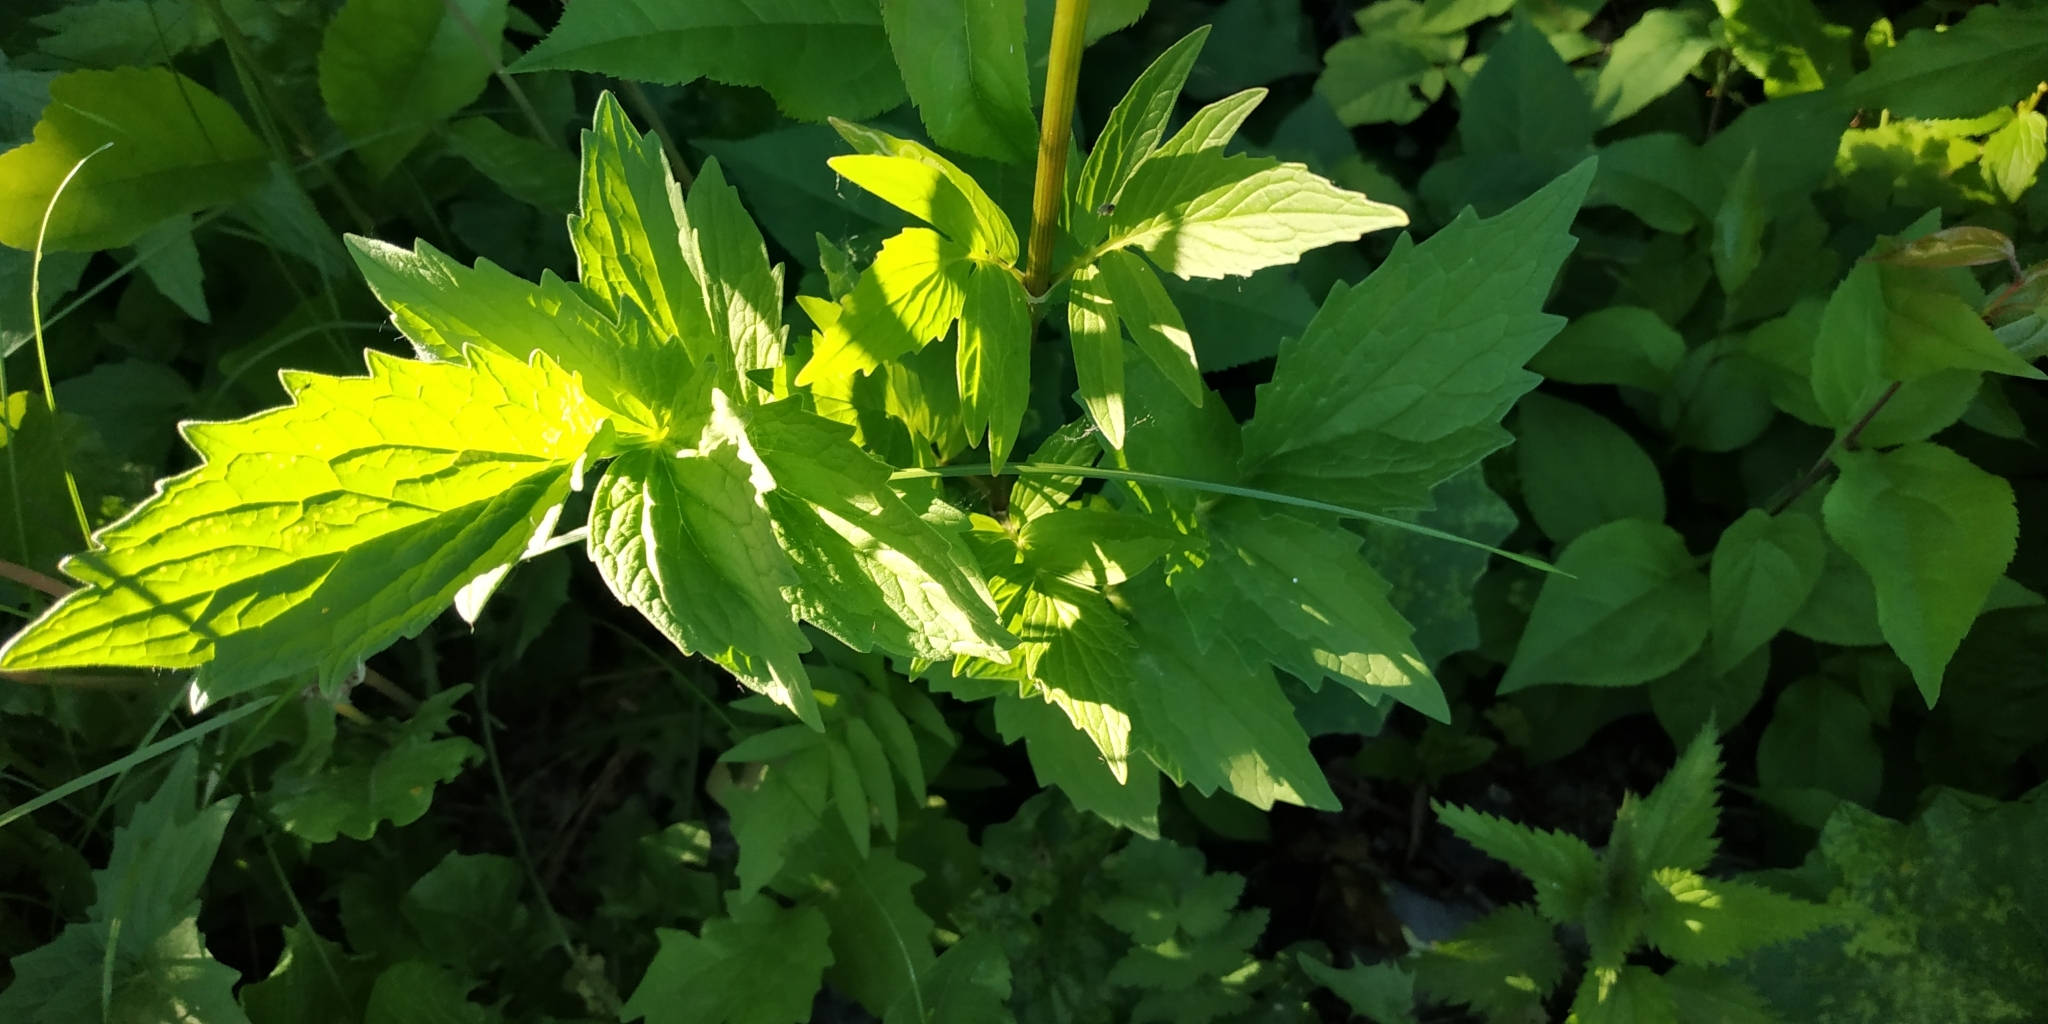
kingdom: Plantae
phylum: Tracheophyta
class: Magnoliopsida
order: Dipsacales
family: Caprifoliaceae
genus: Valeriana
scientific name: Valeriana wolgensis
